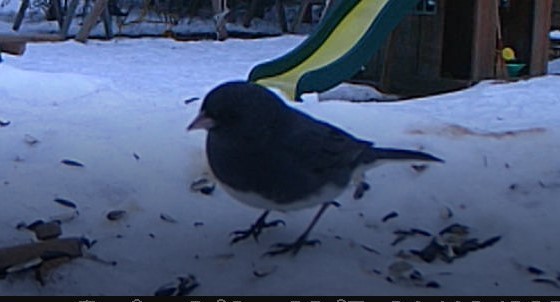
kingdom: Animalia
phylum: Chordata
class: Aves
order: Passeriformes
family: Passerellidae
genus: Junco
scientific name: Junco hyemalis
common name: Dark-eyed junco
